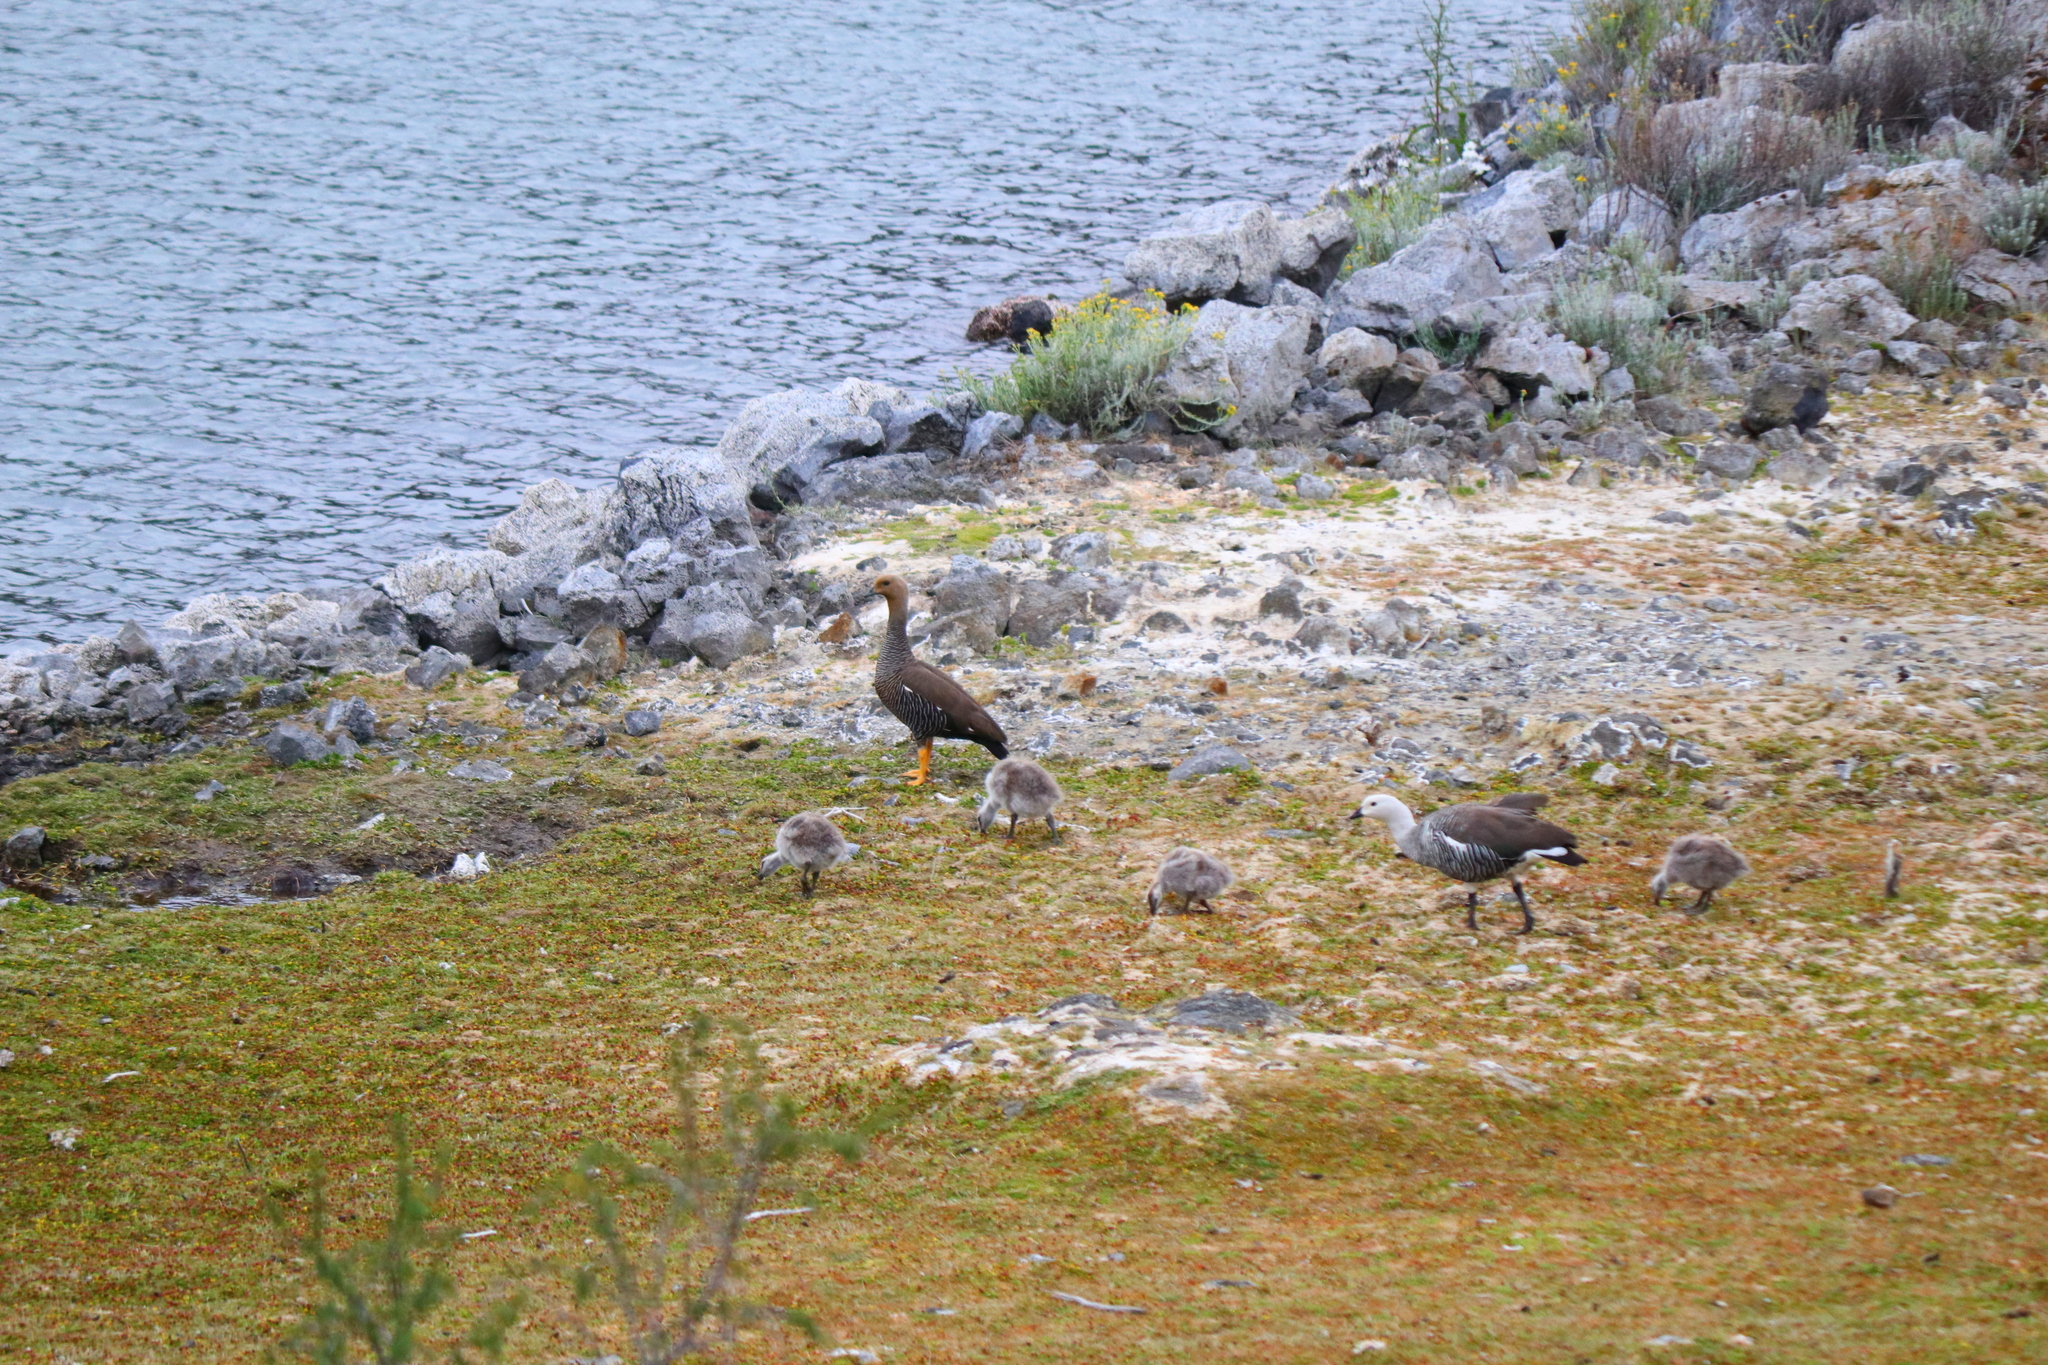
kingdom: Animalia
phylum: Chordata
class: Aves
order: Anseriformes
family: Anatidae
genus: Chloephaga
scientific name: Chloephaga picta
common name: Upland goose
